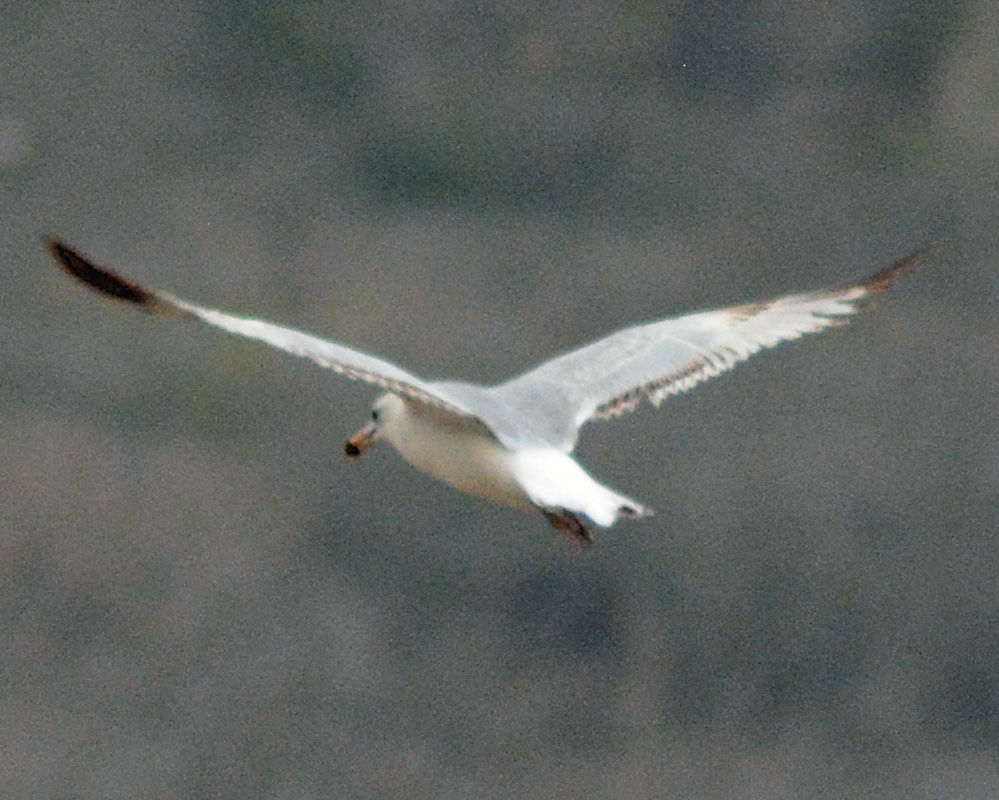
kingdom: Animalia
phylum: Chordata
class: Aves
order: Charadriiformes
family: Laridae
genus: Larus
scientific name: Larus delawarensis
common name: Ring-billed gull
